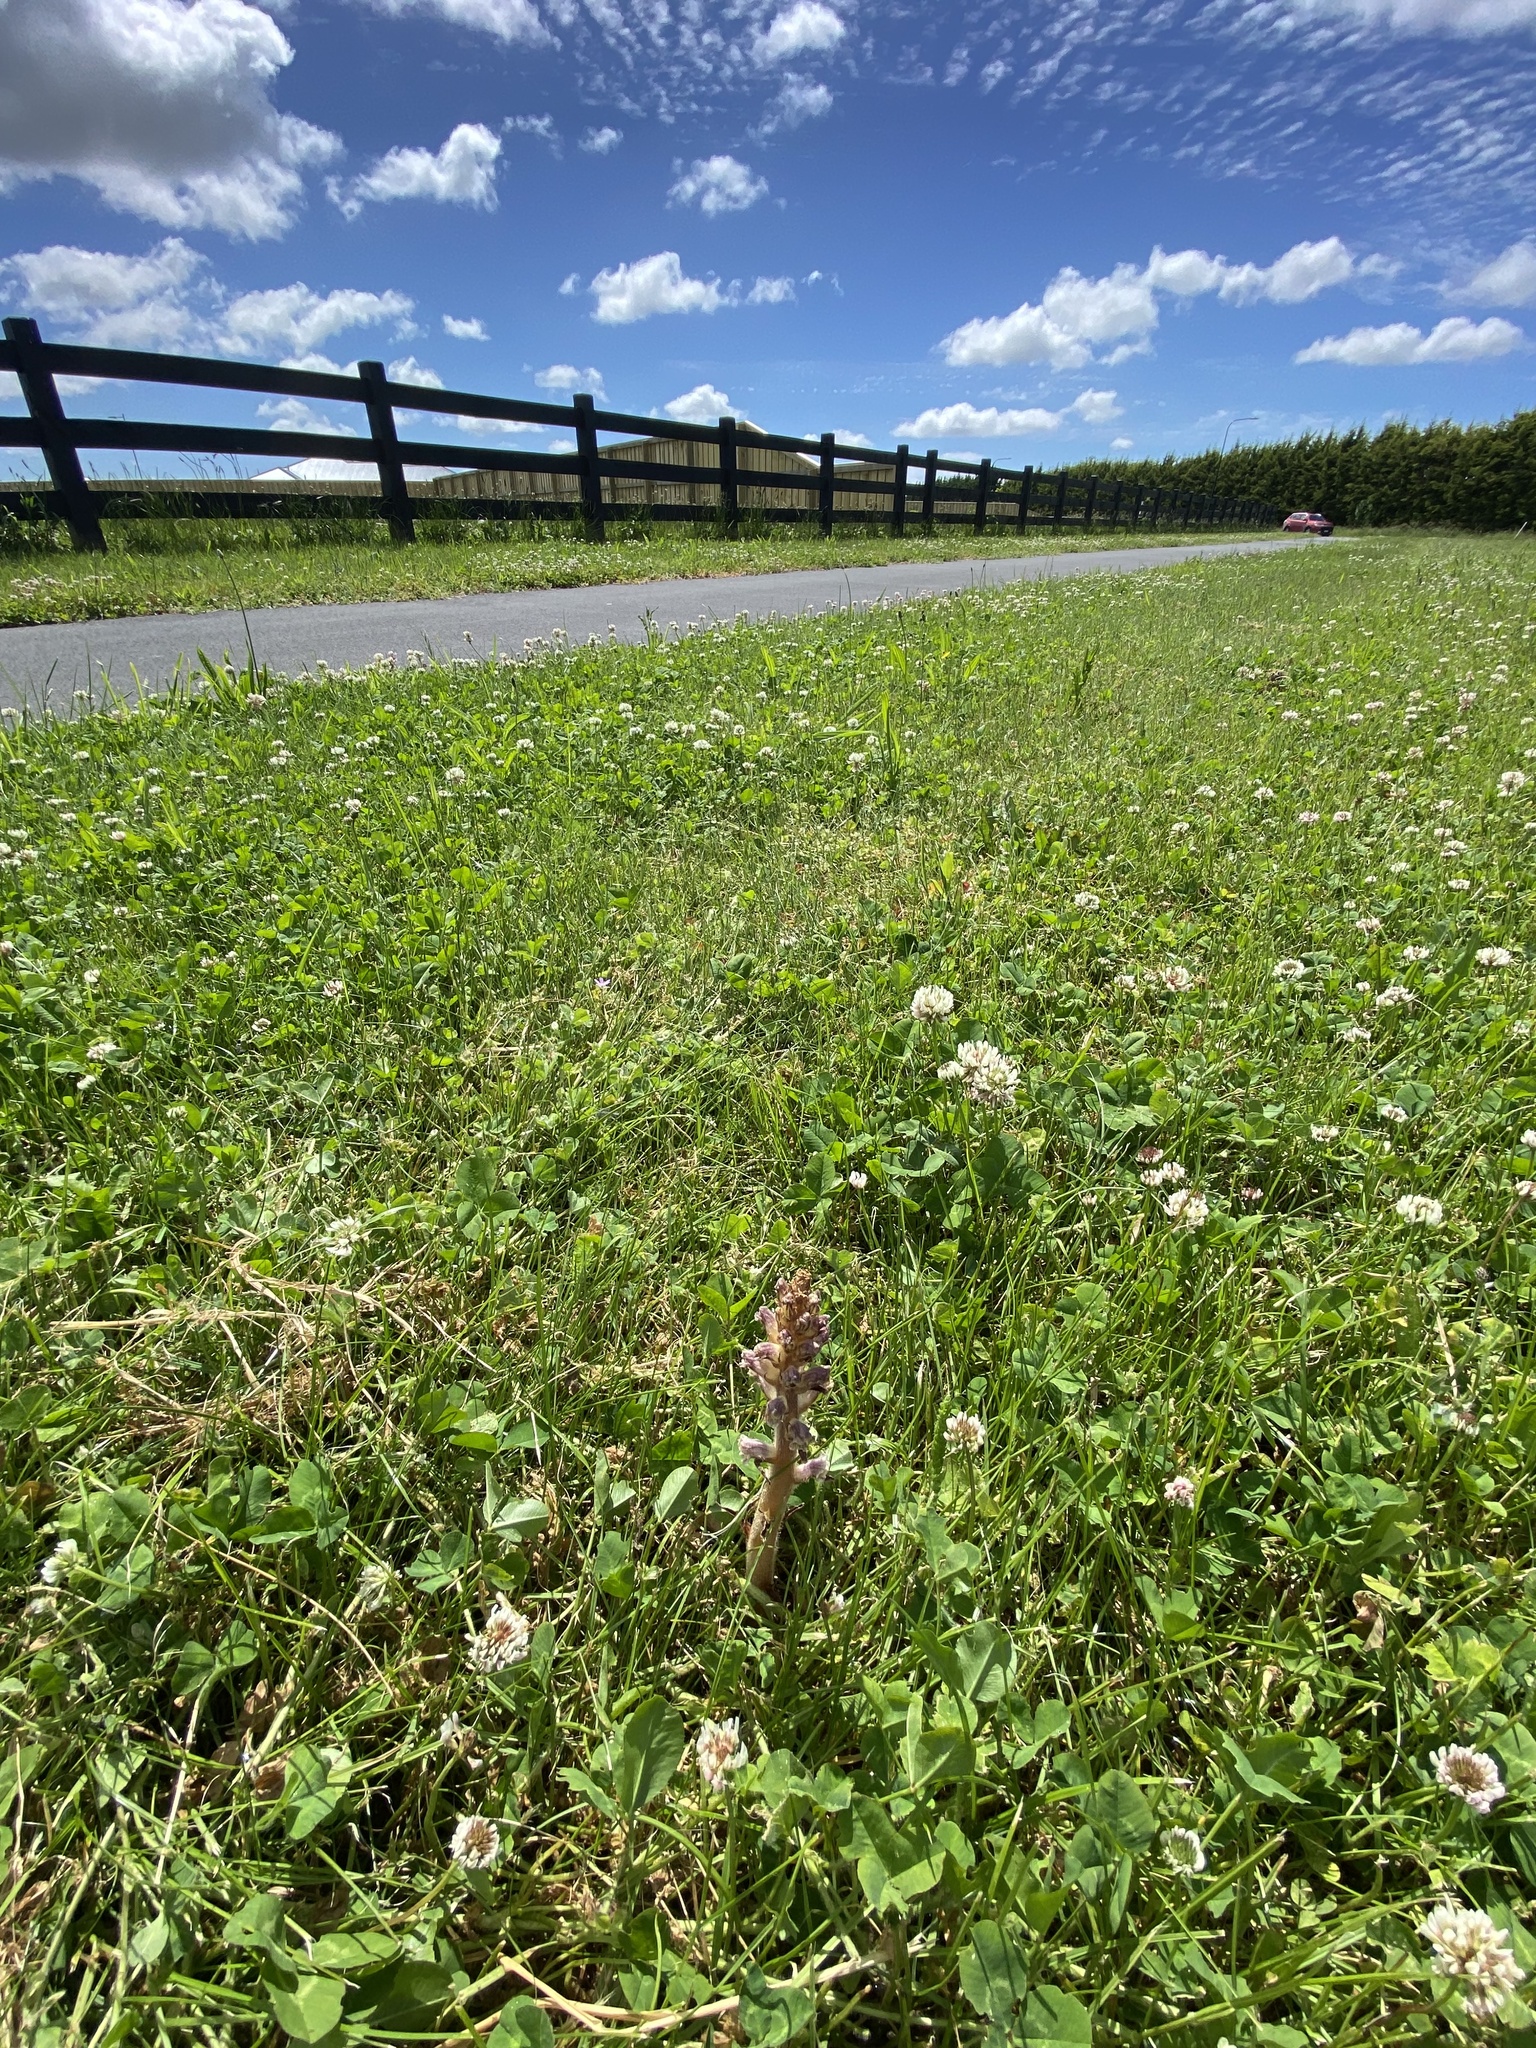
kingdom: Plantae
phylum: Tracheophyta
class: Magnoliopsida
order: Lamiales
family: Orobanchaceae
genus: Orobanche
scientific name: Orobanche minor
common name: Common broomrape
